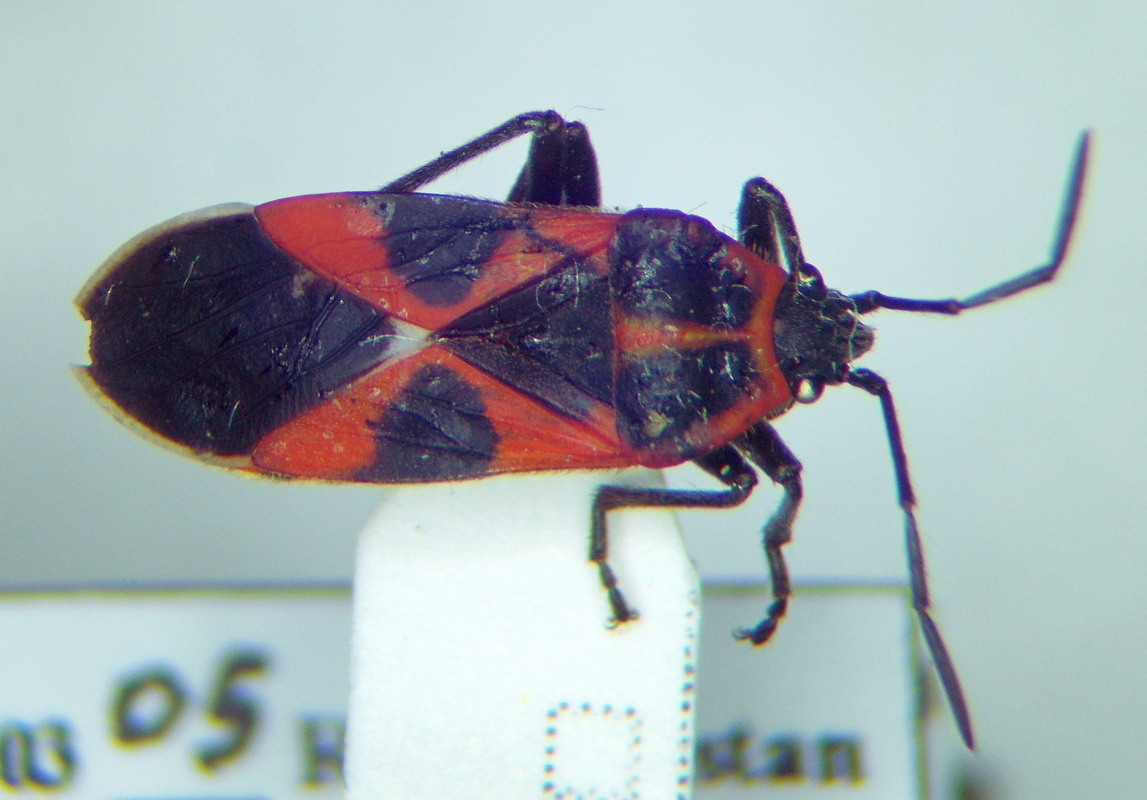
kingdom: Animalia
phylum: Arthropoda
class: Insecta
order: Hemiptera
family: Lygaeidae
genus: Tropidothorax
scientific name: Tropidothorax leucopterus
